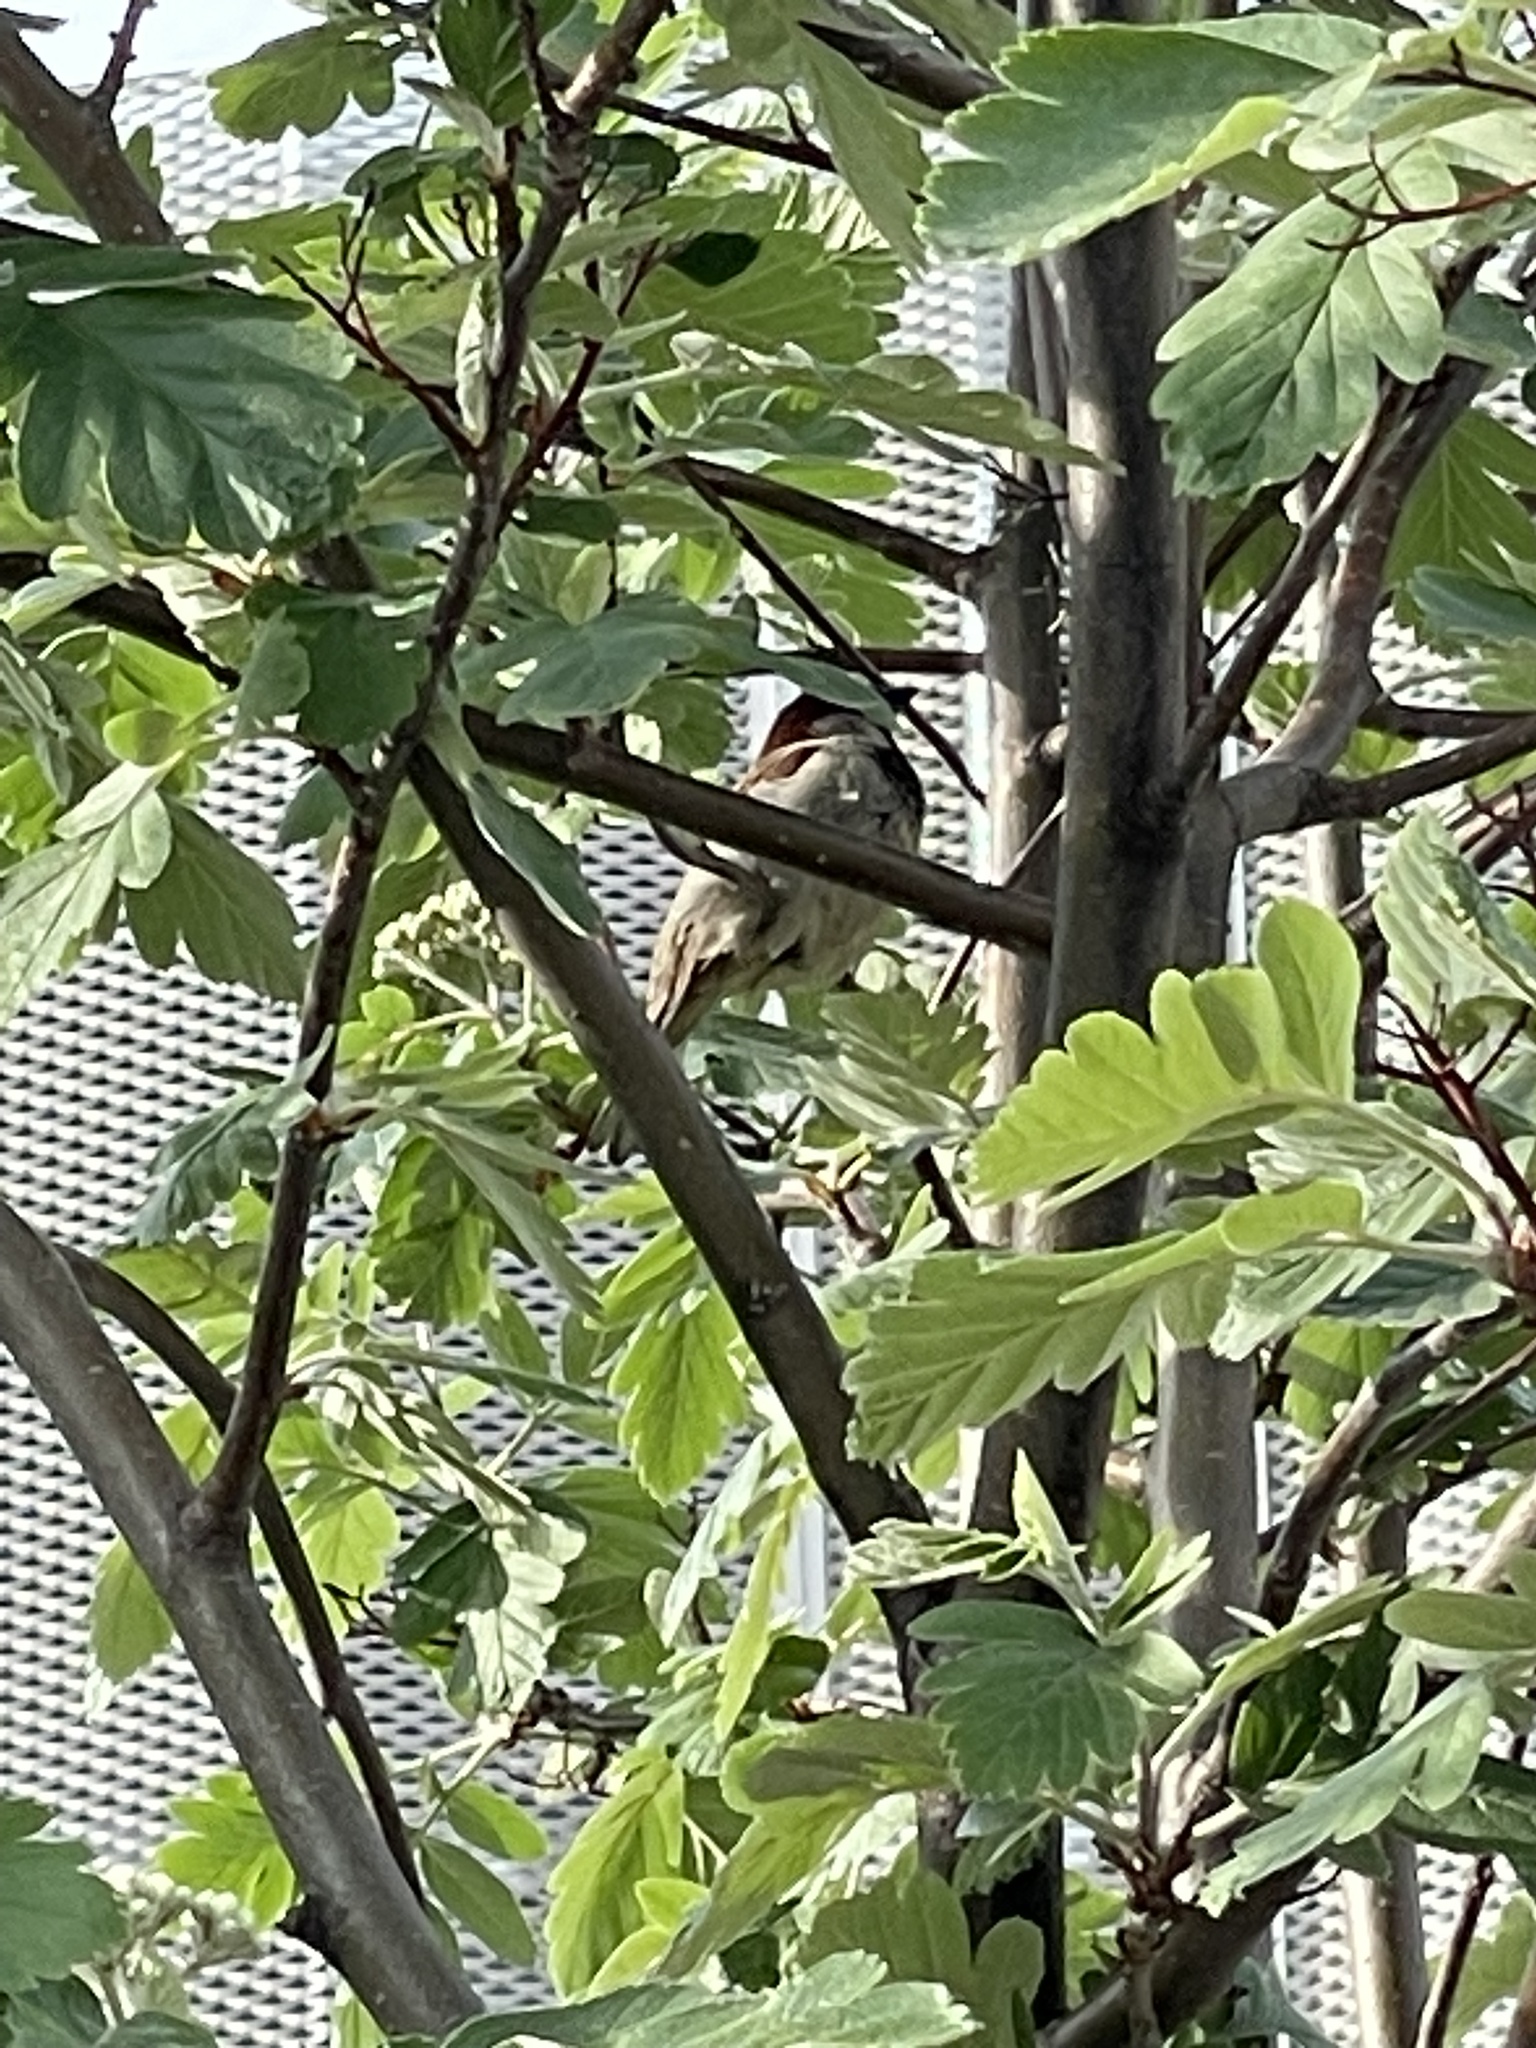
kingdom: Animalia
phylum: Chordata
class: Aves
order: Passeriformes
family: Passeridae
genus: Passer
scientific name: Passer domesticus
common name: House sparrow
